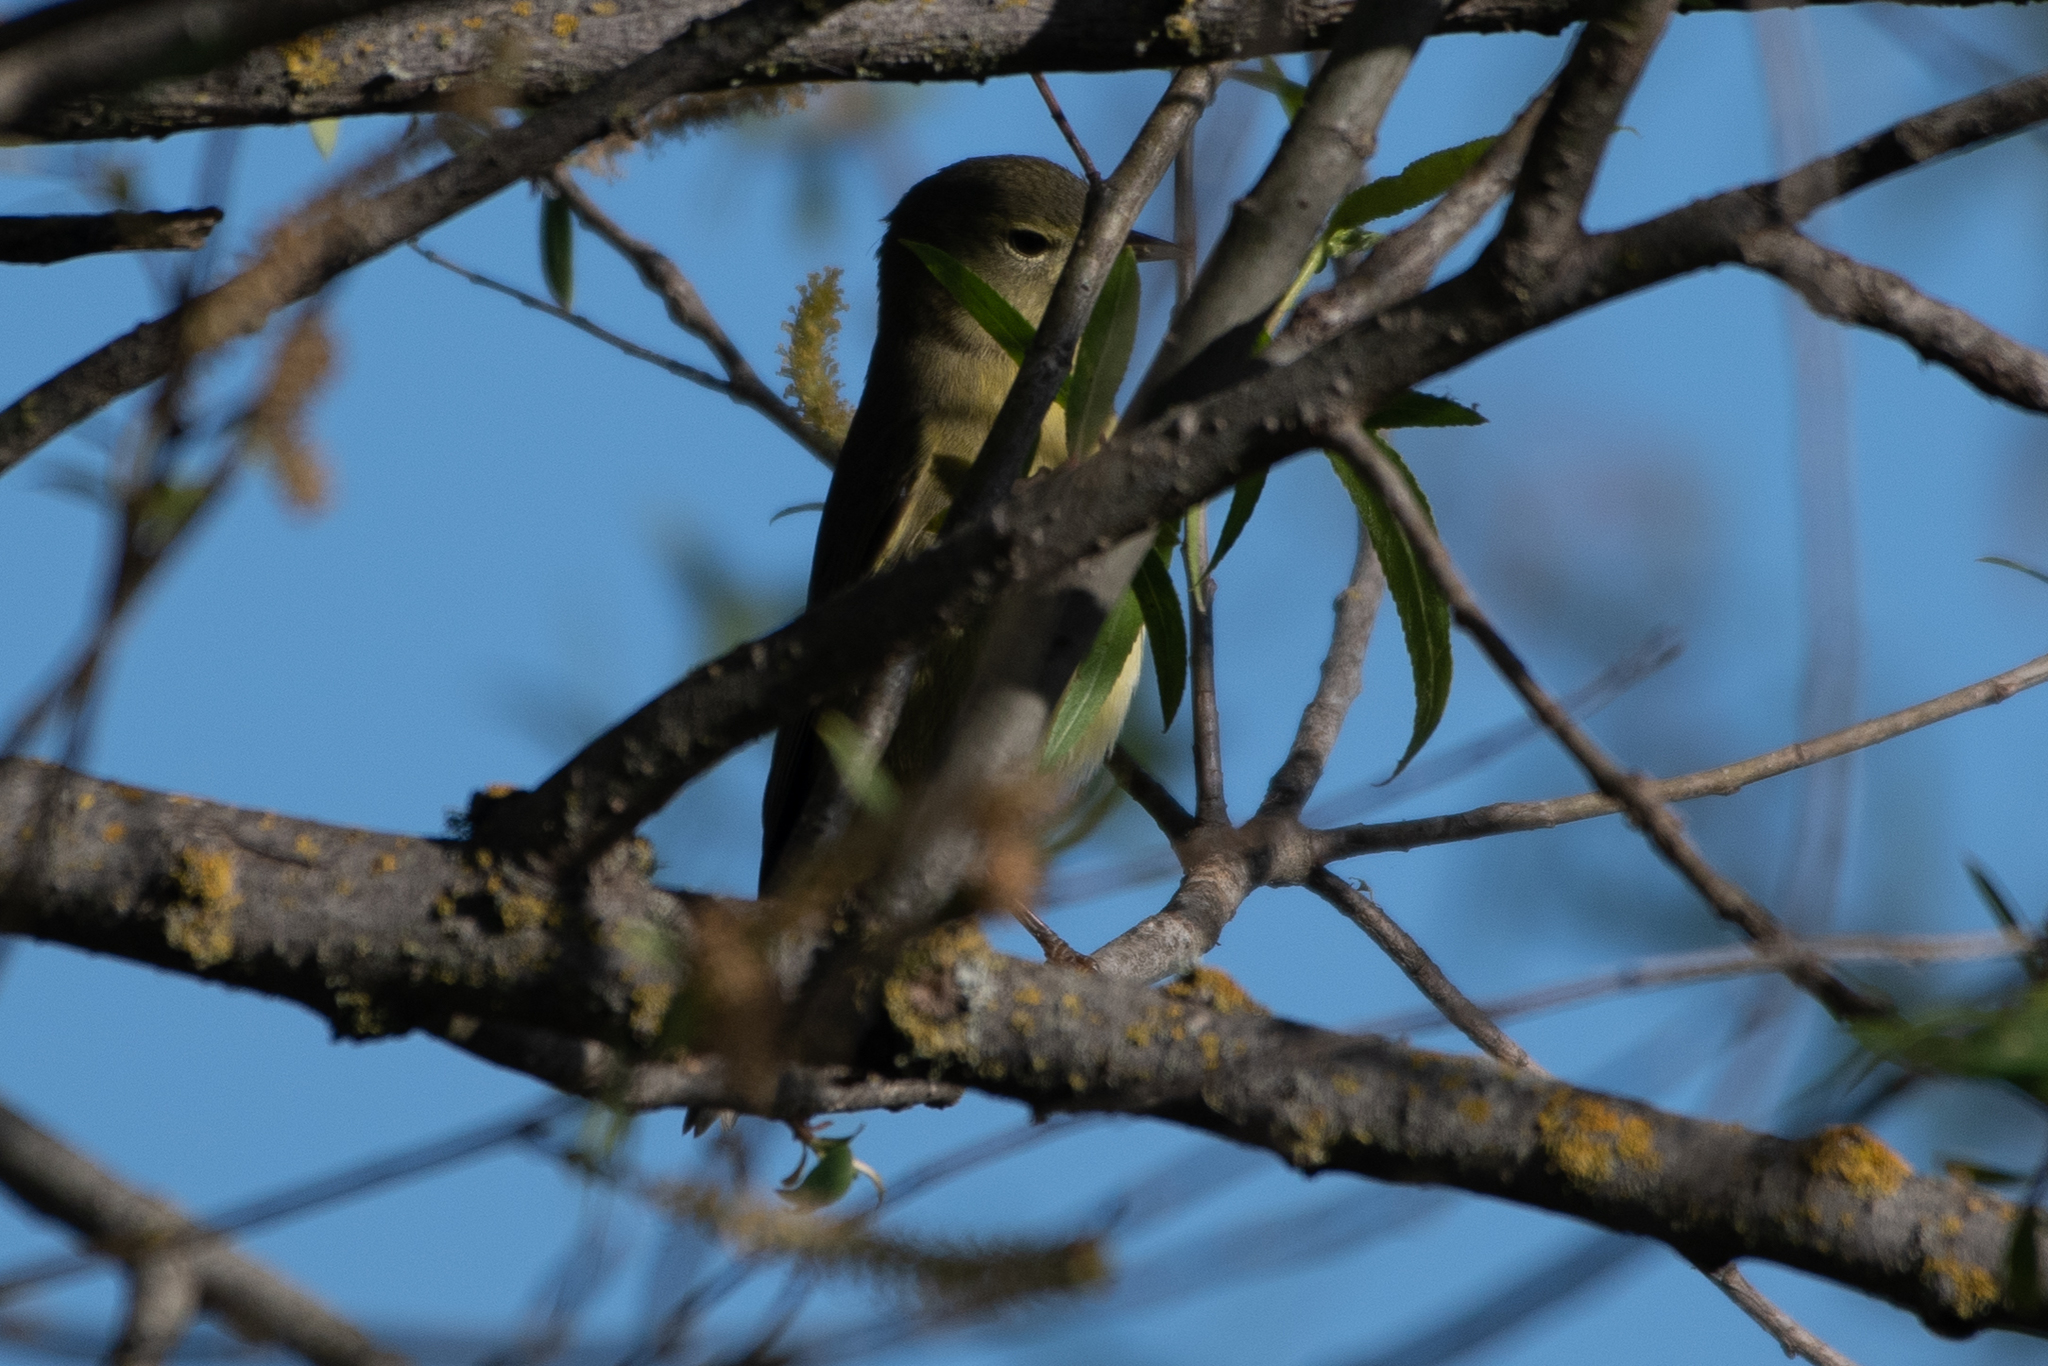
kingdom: Animalia
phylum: Chordata
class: Aves
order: Passeriformes
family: Parulidae
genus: Leiothlypis
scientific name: Leiothlypis celata
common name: Orange-crowned warbler
